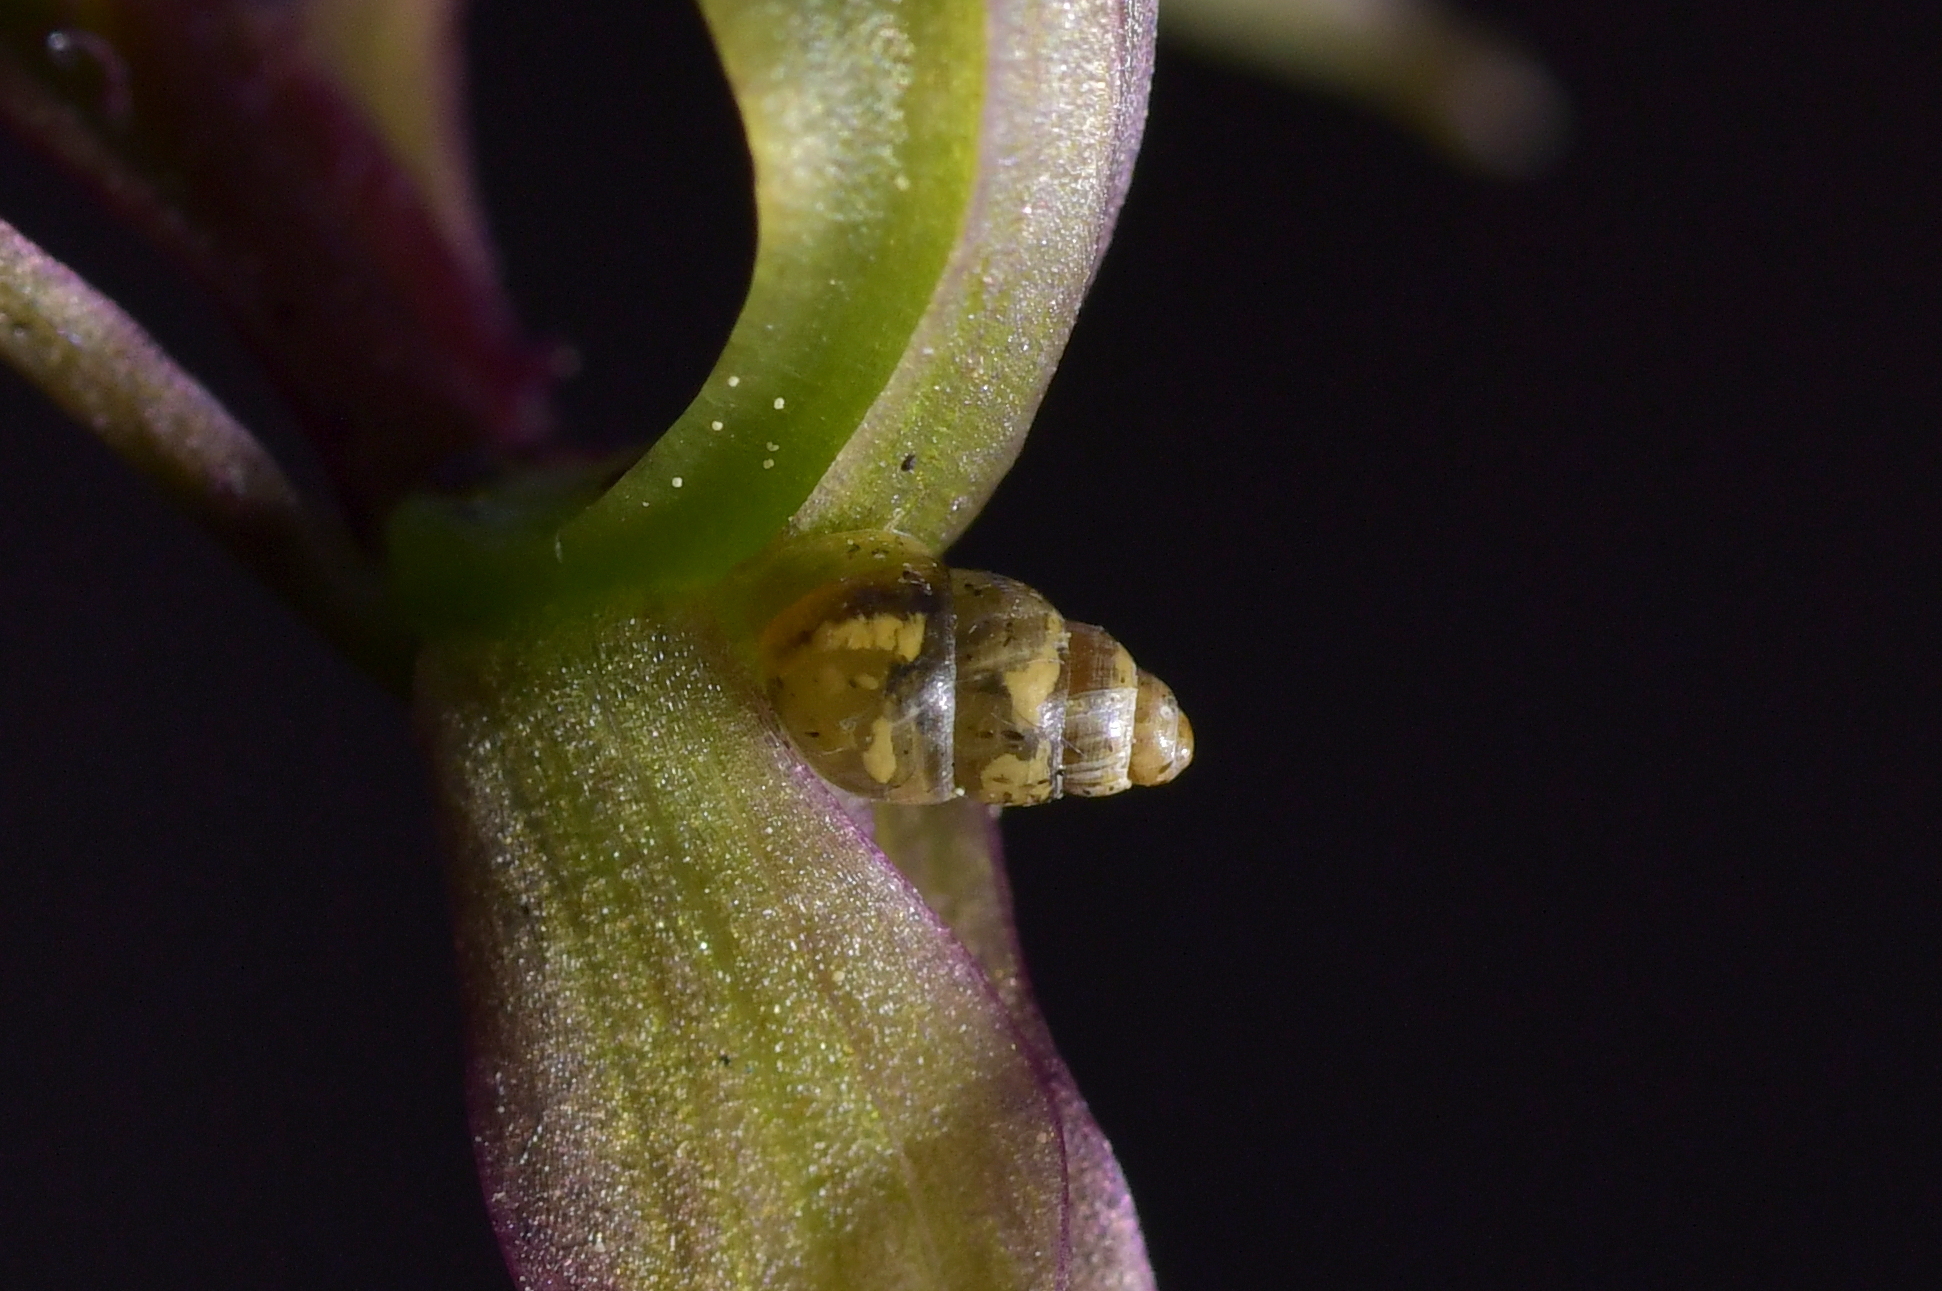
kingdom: Animalia
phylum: Mollusca
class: Gastropoda
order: Stylommatophora
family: Achatinellidae
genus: Tornatellinops
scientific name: Tornatellinops novoseelandicus
